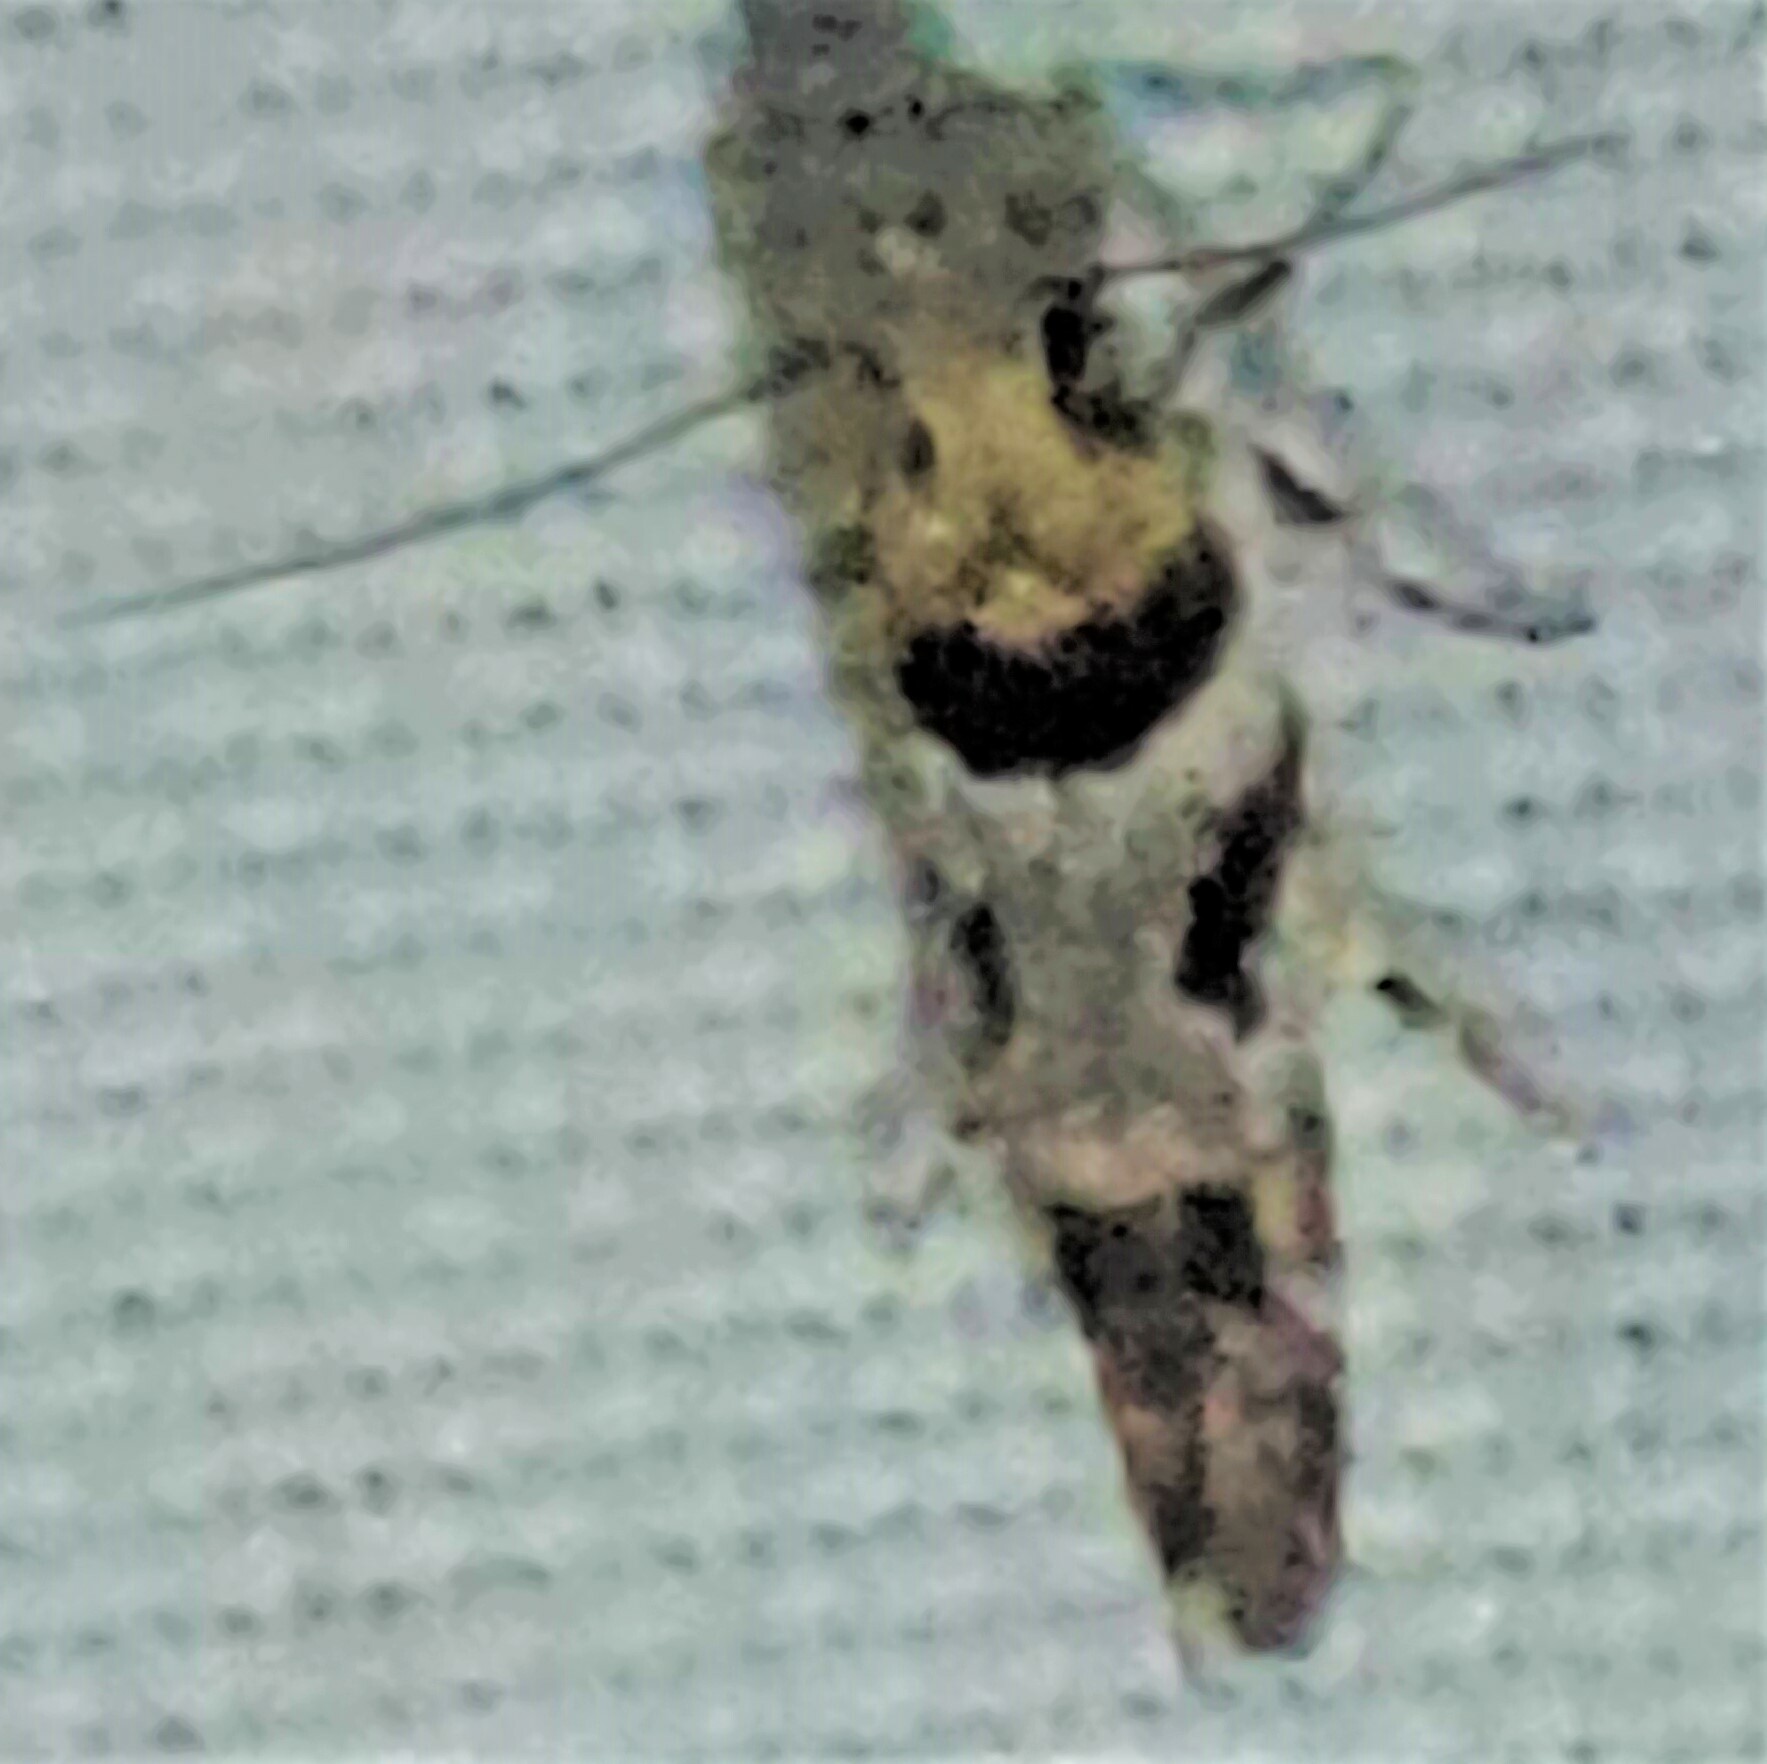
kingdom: Animalia
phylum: Arthropoda
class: Insecta
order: Lepidoptera
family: Gelechiidae
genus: Aristotelia
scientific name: Aristotelia devexella
